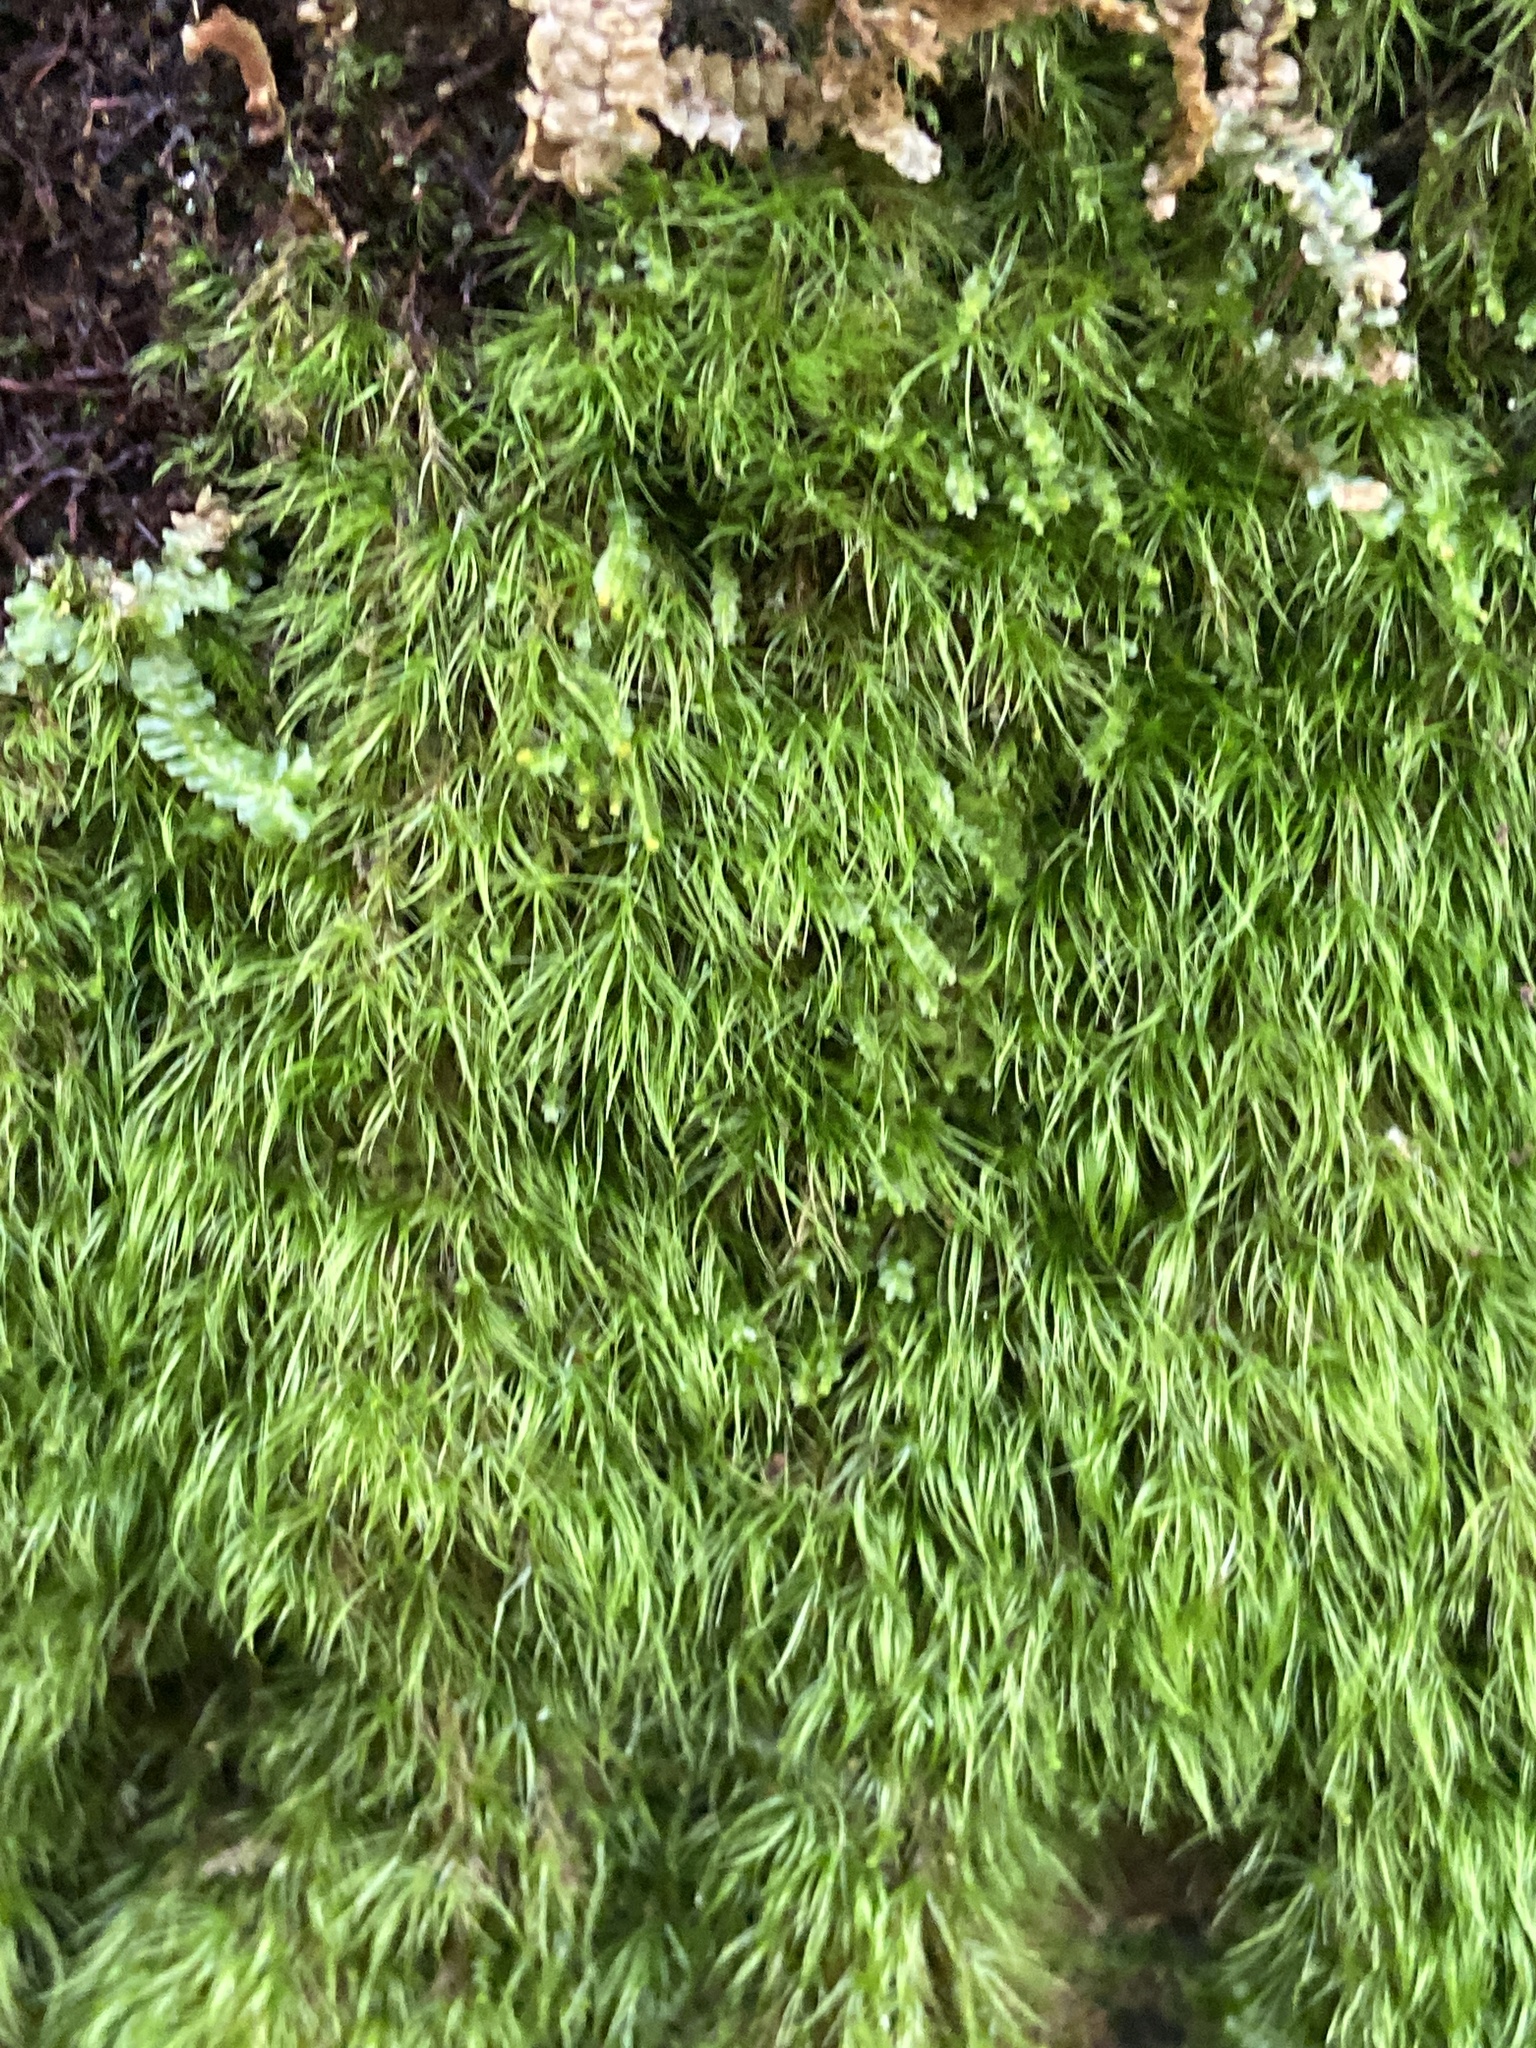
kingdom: Plantae
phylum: Bryophyta
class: Bryopsida
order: Dicranales
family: Dicranellaceae
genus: Dicranella
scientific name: Dicranella heteromalla
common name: Silky forklet moss
